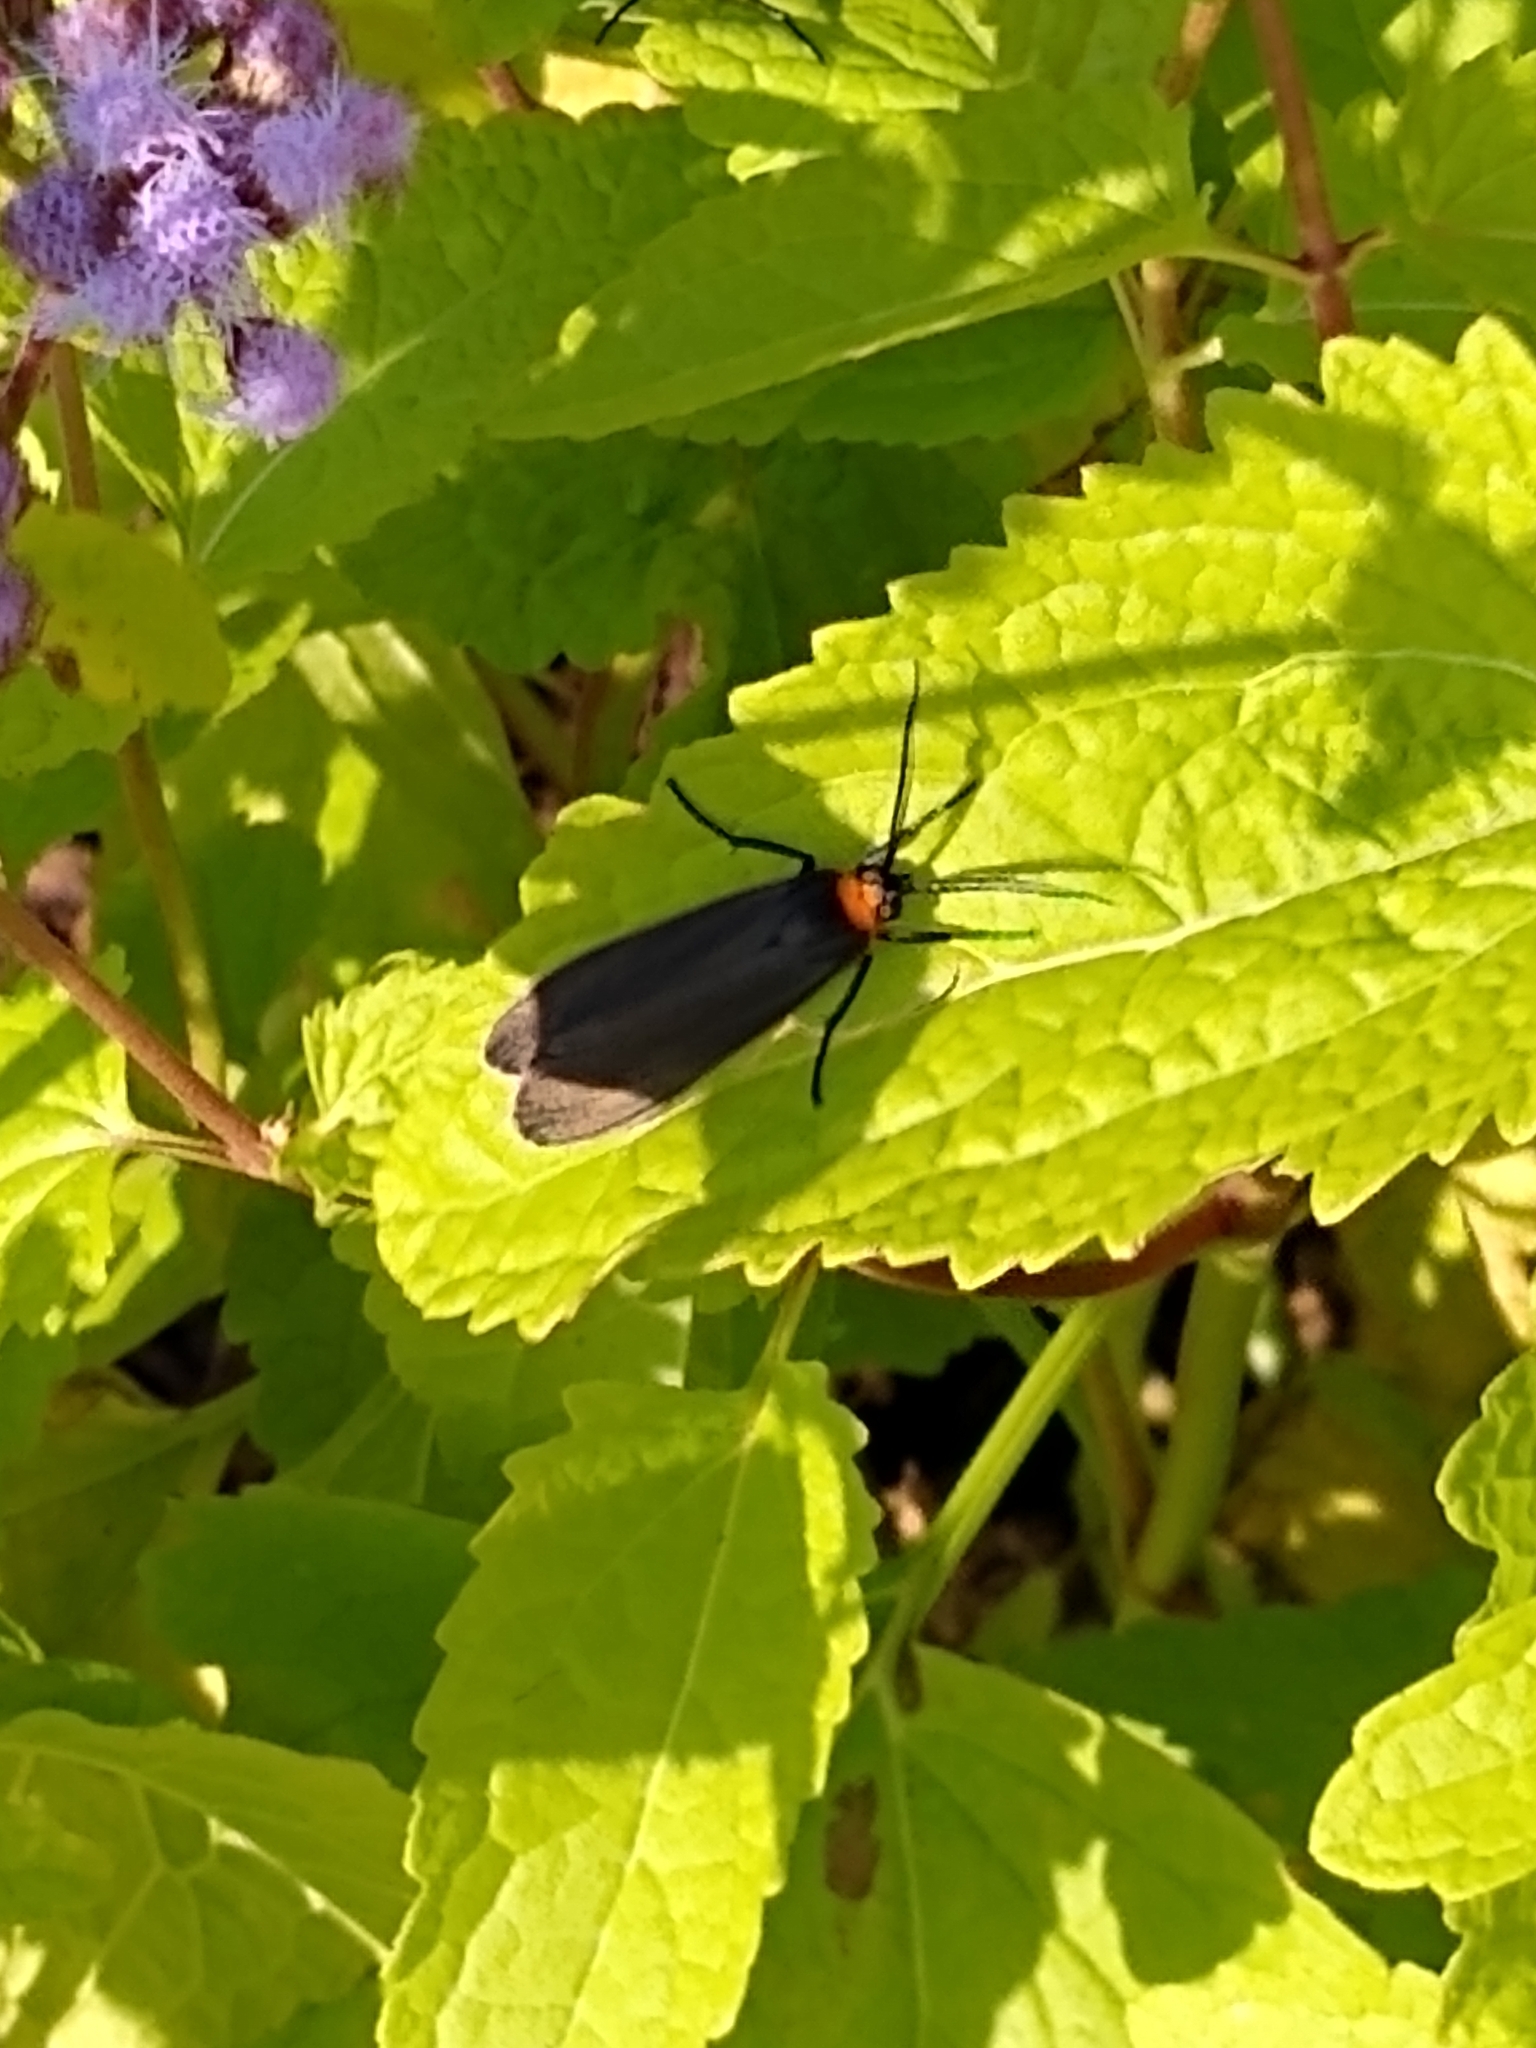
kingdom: Animalia
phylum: Arthropoda
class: Insecta
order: Lepidoptera
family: Erebidae
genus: Cisseps
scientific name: Cisseps fulvicollis
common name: Yellow-collared scape moth
